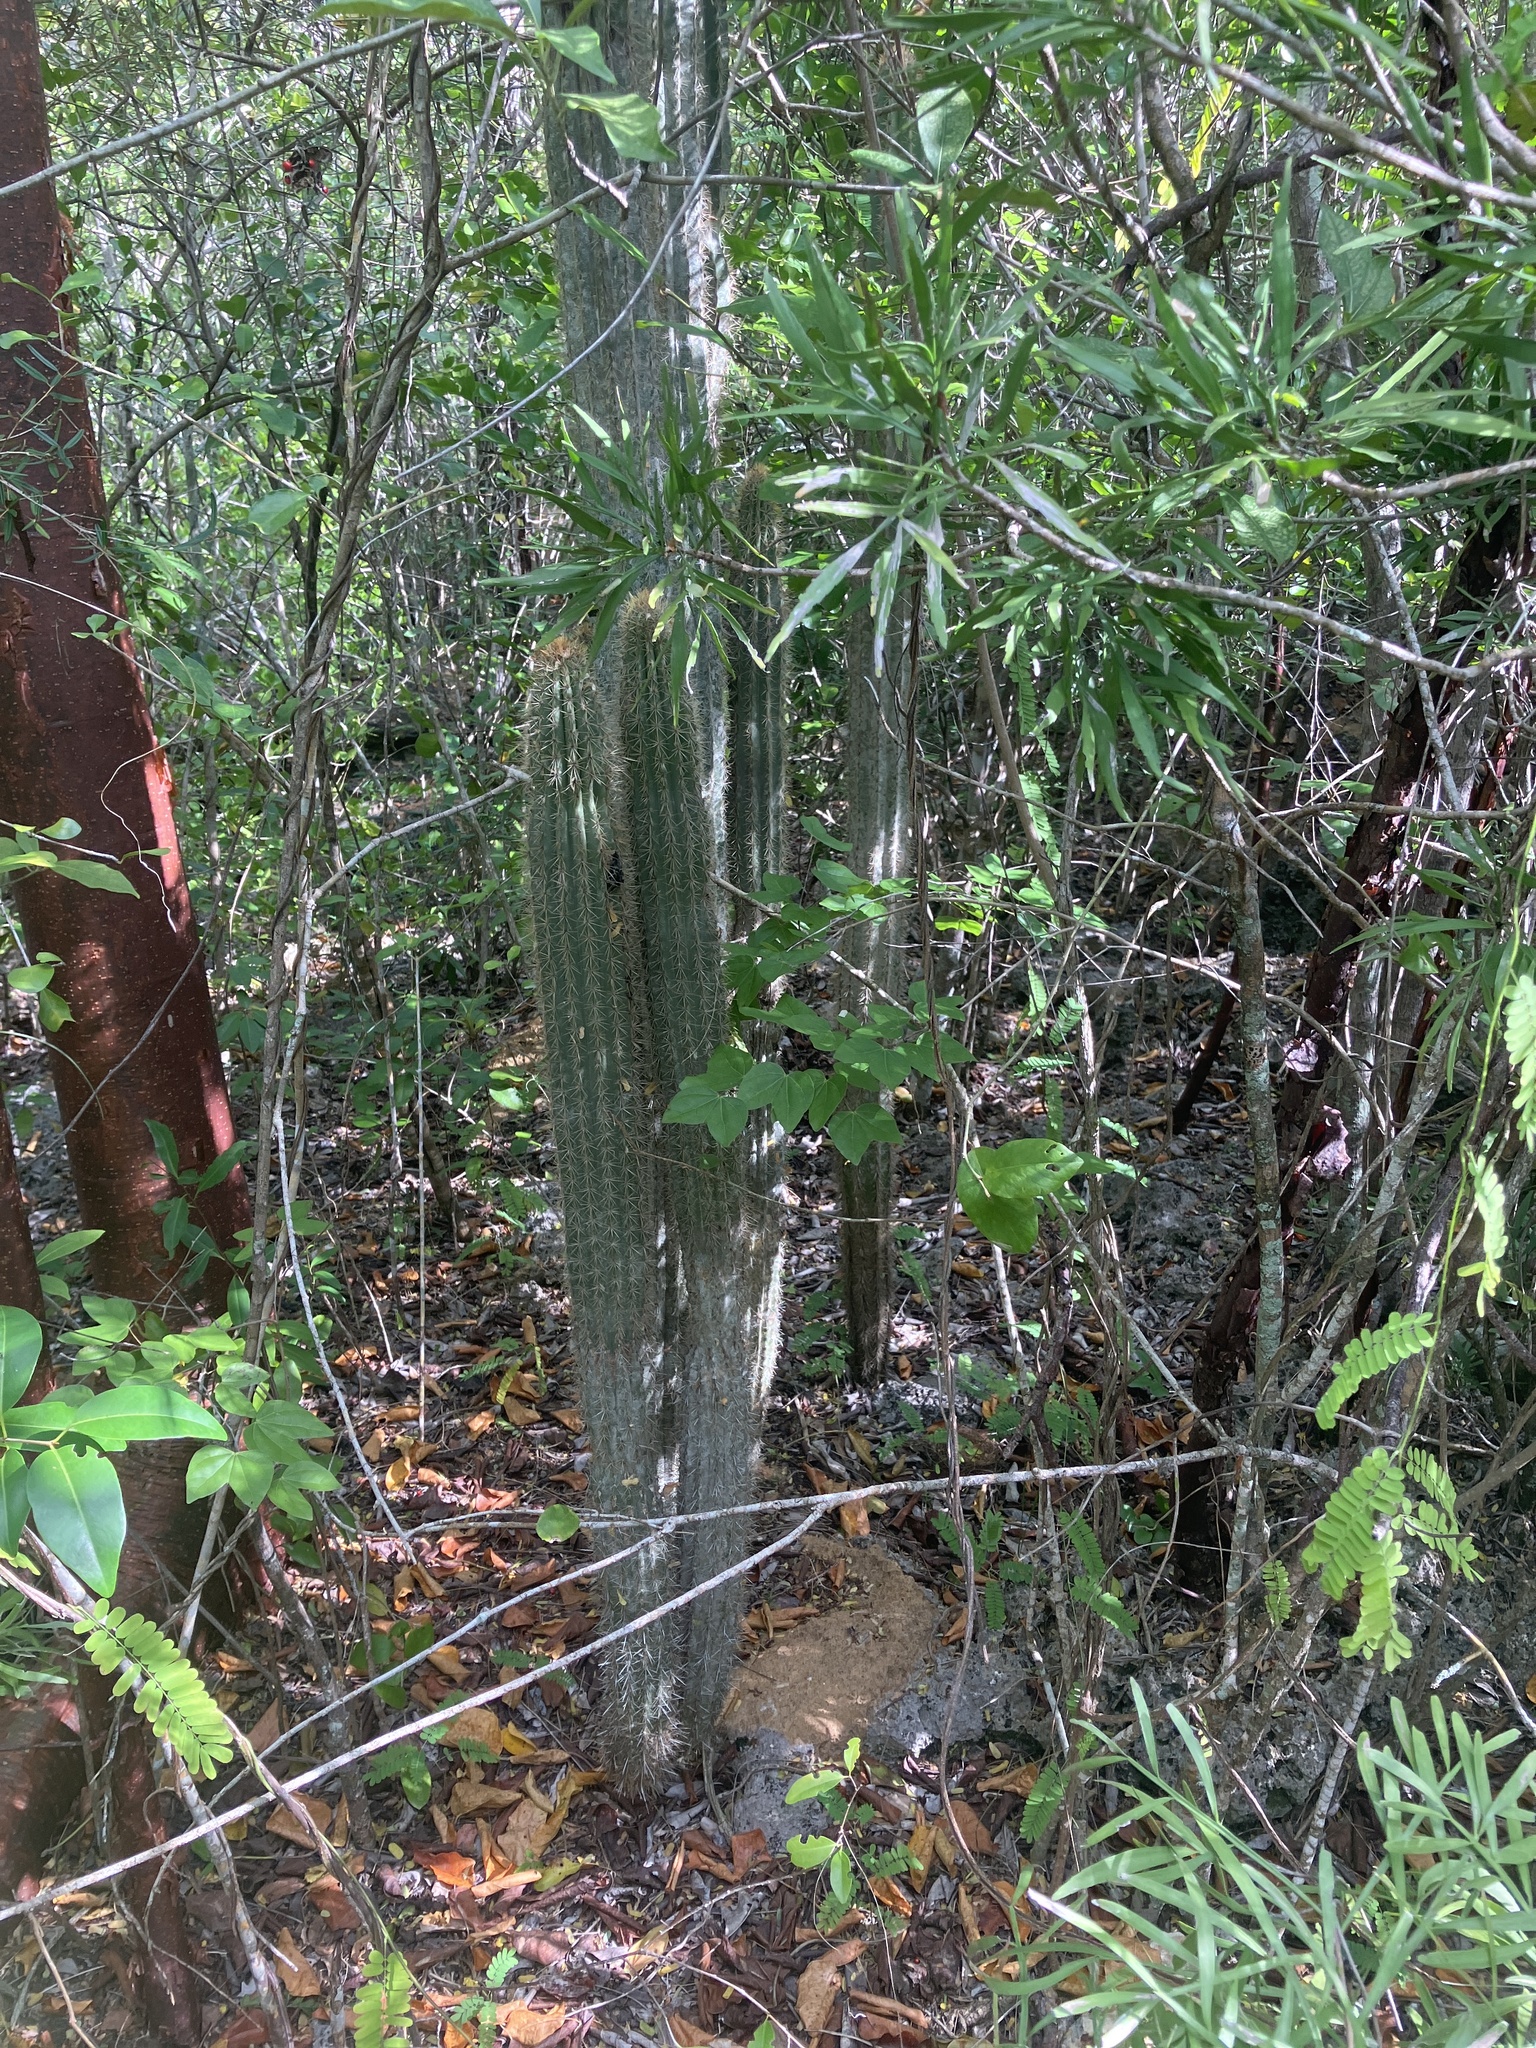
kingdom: Plantae
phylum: Tracheophyta
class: Magnoliopsida
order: Caryophyllales
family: Cactaceae
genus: Pilosocereus
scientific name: Pilosocereus jamaicensis
